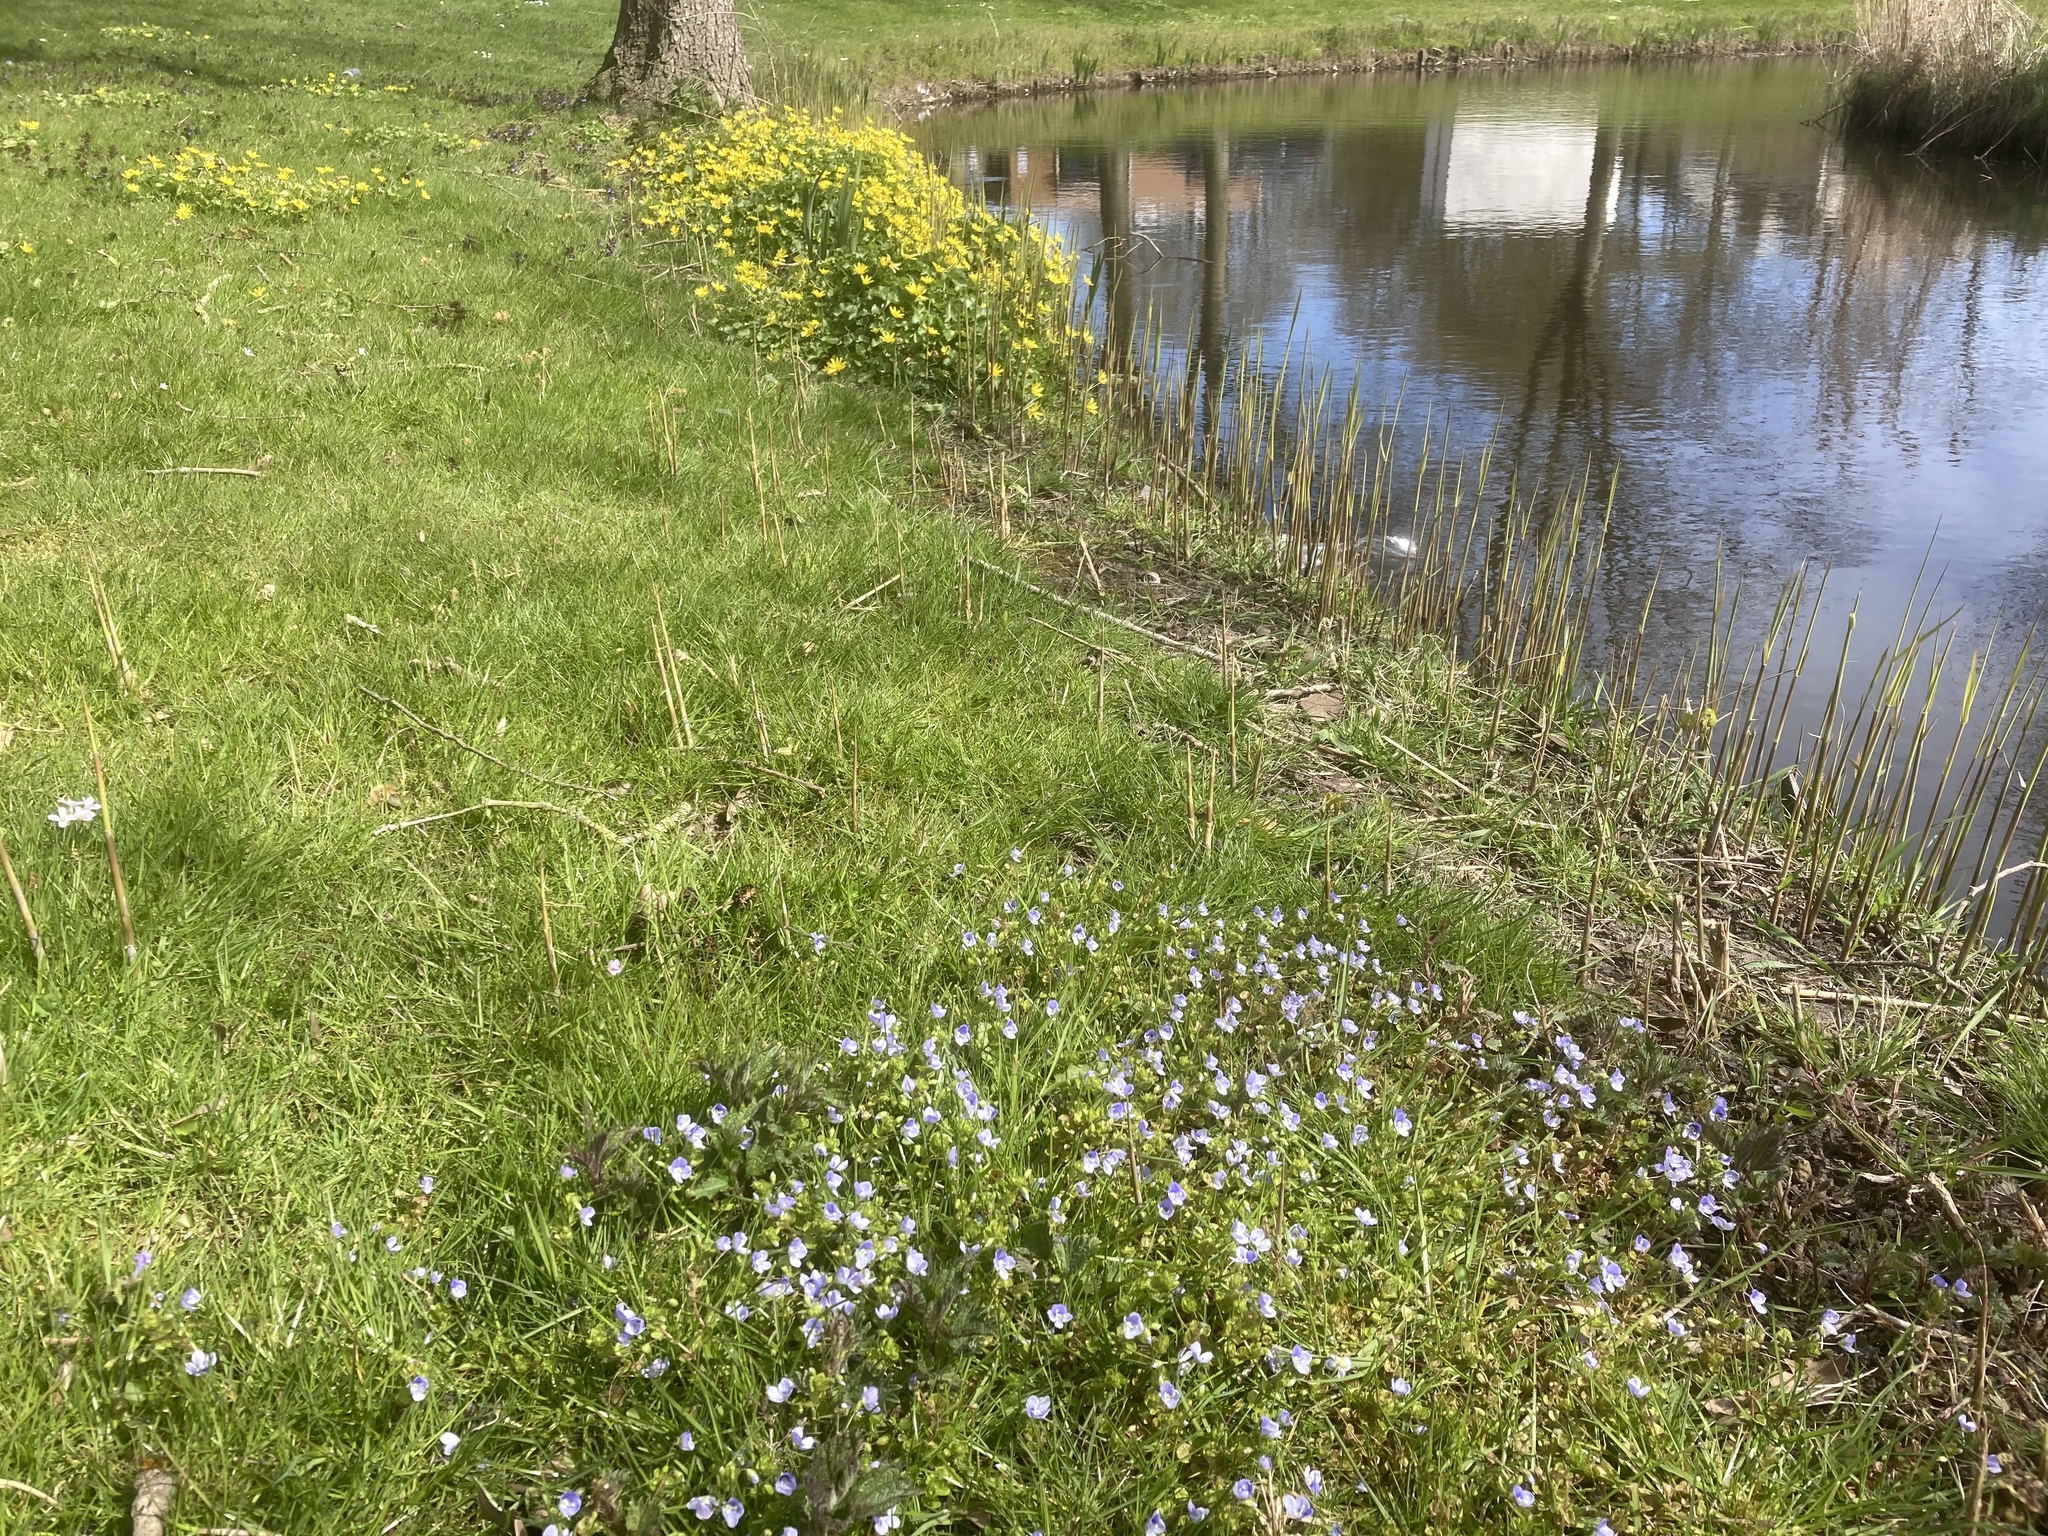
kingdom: Plantae
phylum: Tracheophyta
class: Magnoliopsida
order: Lamiales
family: Plantaginaceae
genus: Veronica
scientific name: Veronica filiformis
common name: Slender speedwell
